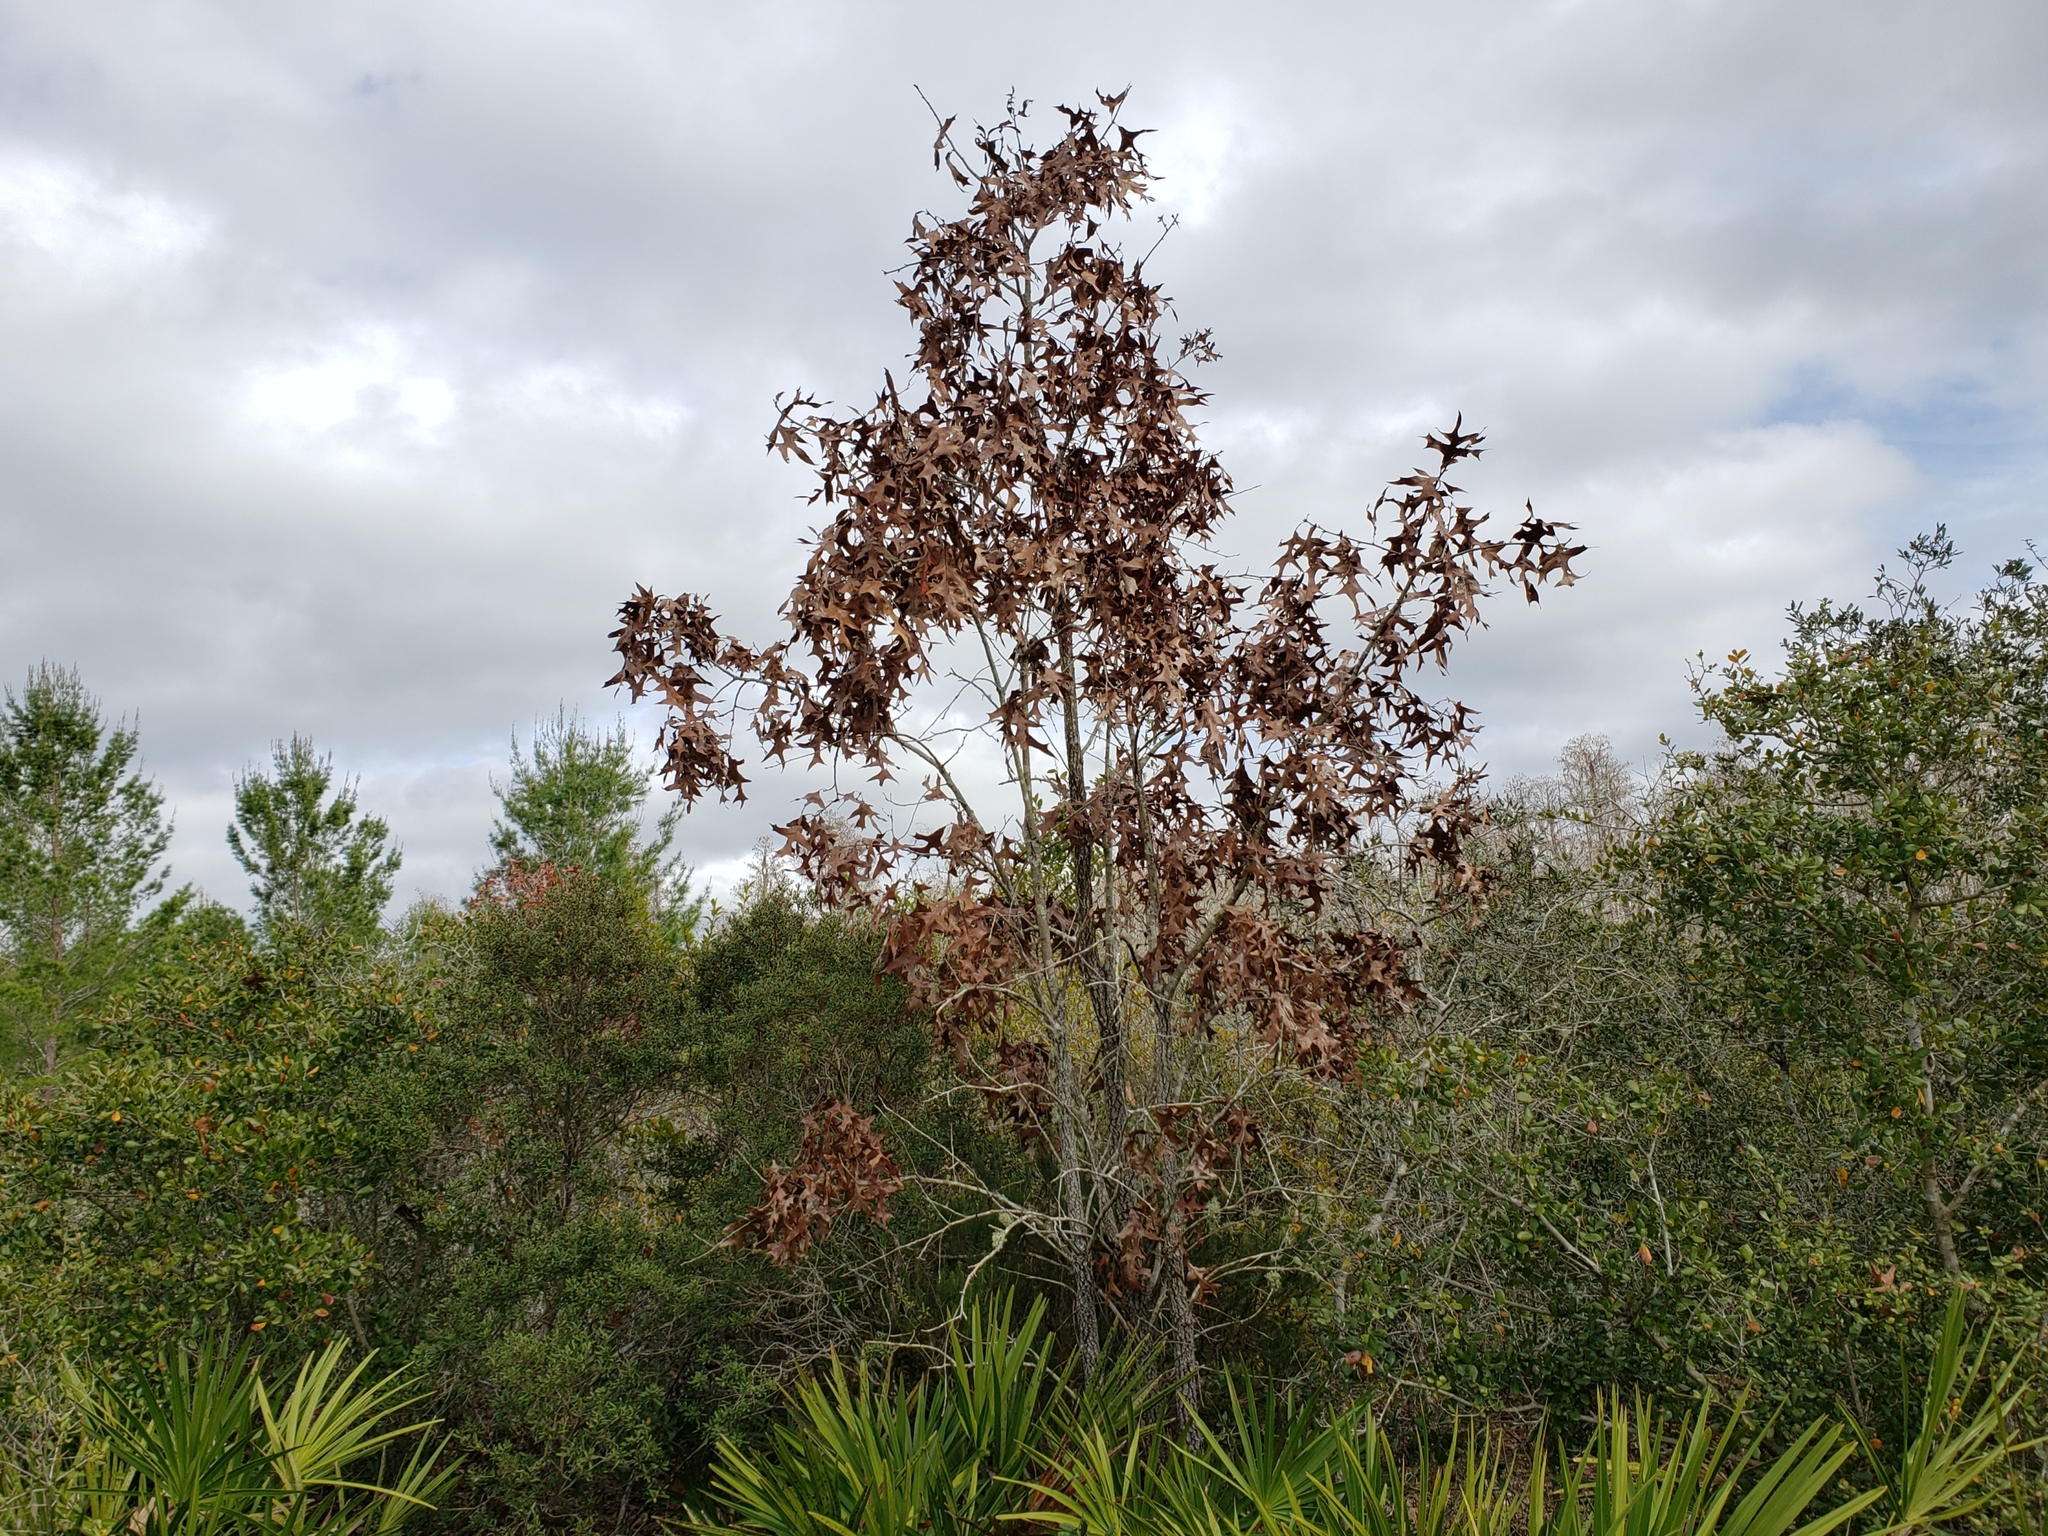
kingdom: Plantae
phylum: Tracheophyta
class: Magnoliopsida
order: Fagales
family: Fagaceae
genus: Quercus
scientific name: Quercus laevis
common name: Turkey oak
